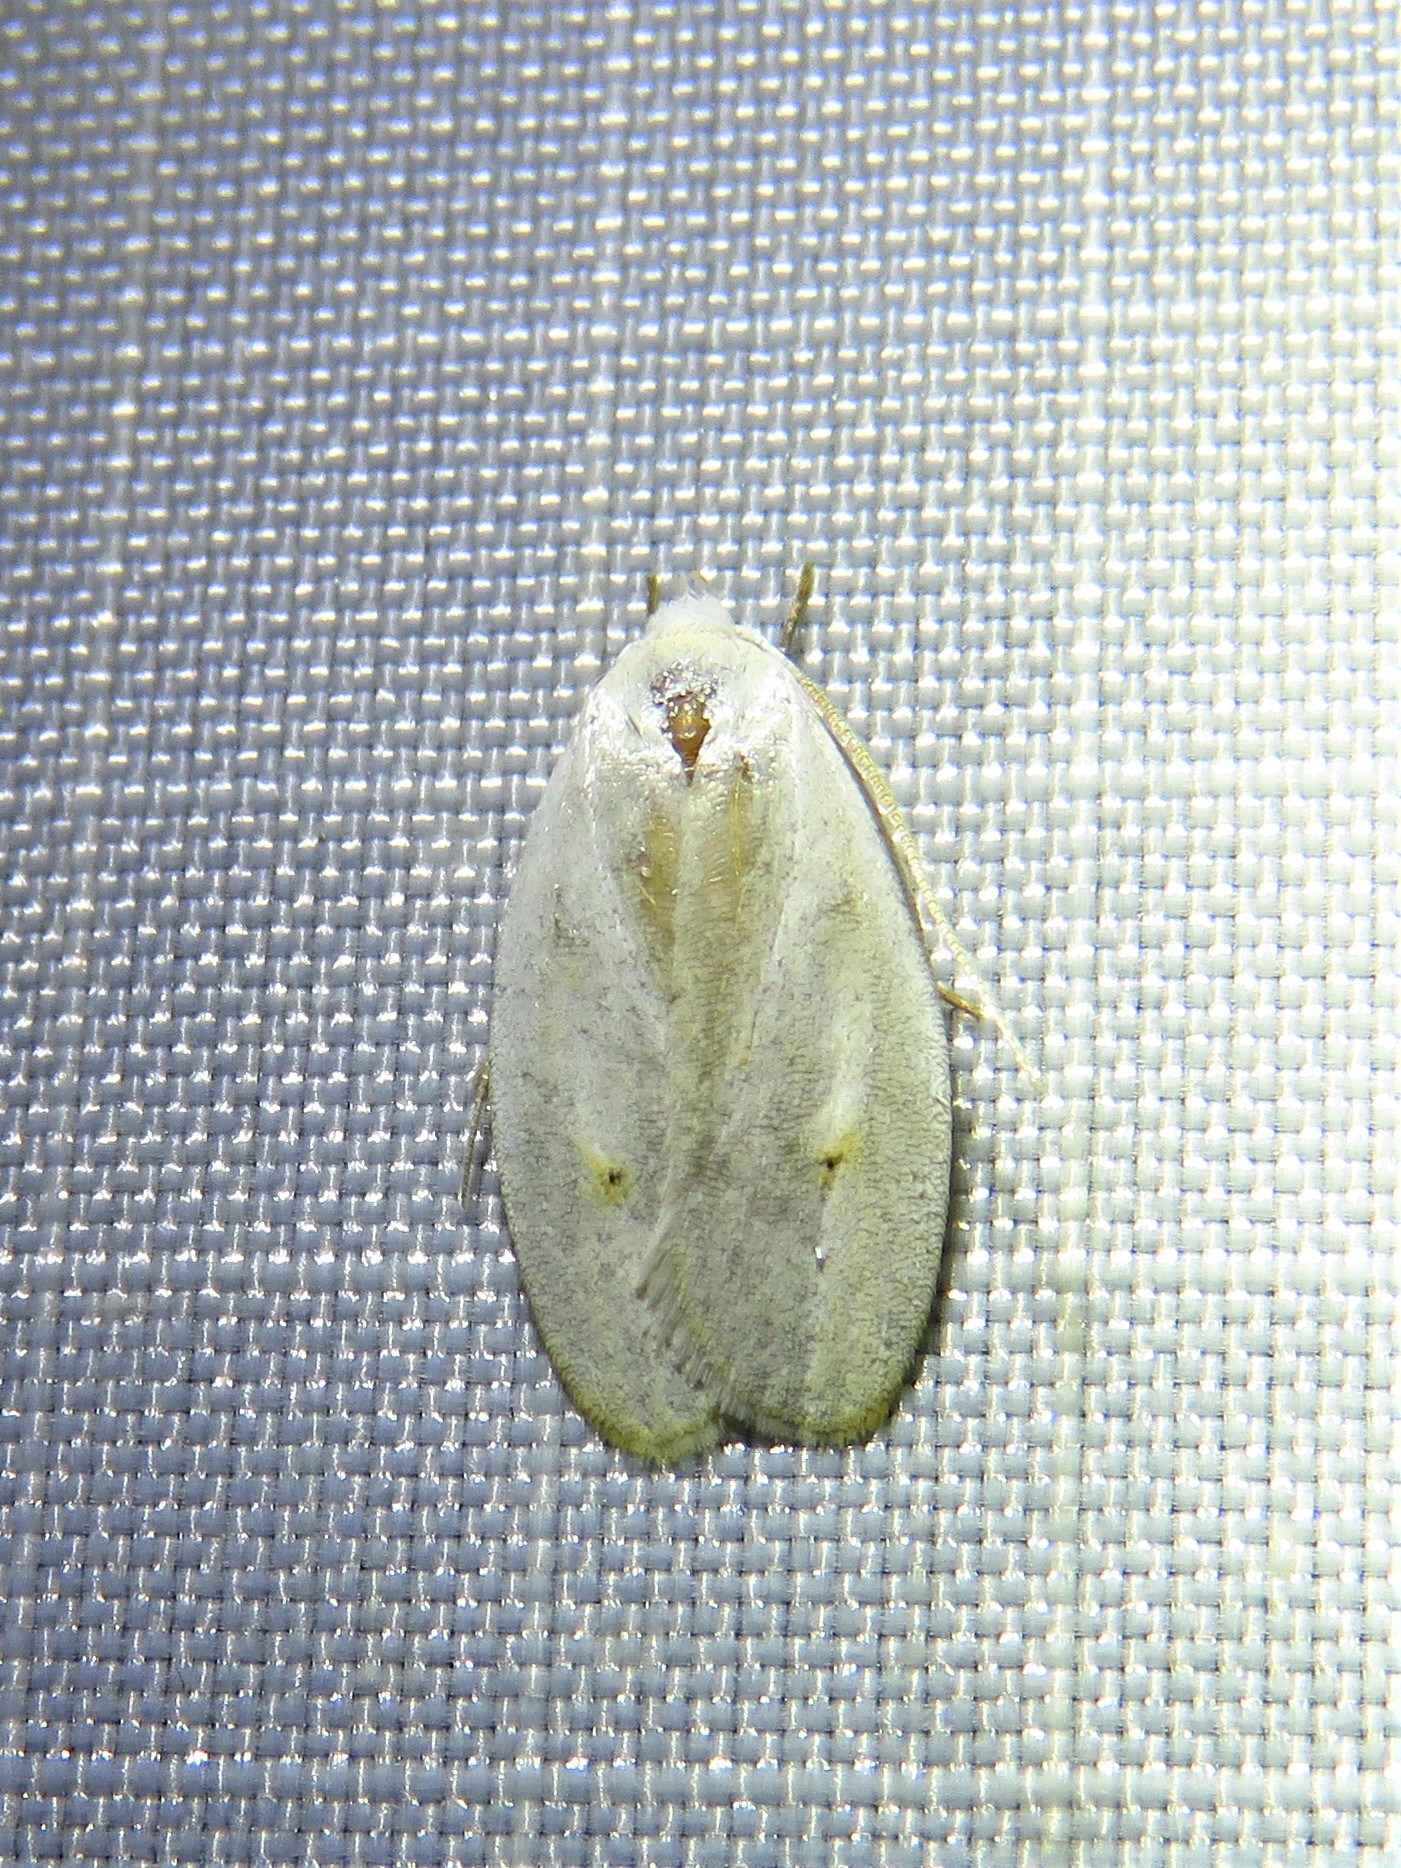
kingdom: Animalia
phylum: Arthropoda
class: Insecta
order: Lepidoptera
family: Peleopodidae
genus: Durrantia
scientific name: Durrantia piperatella
